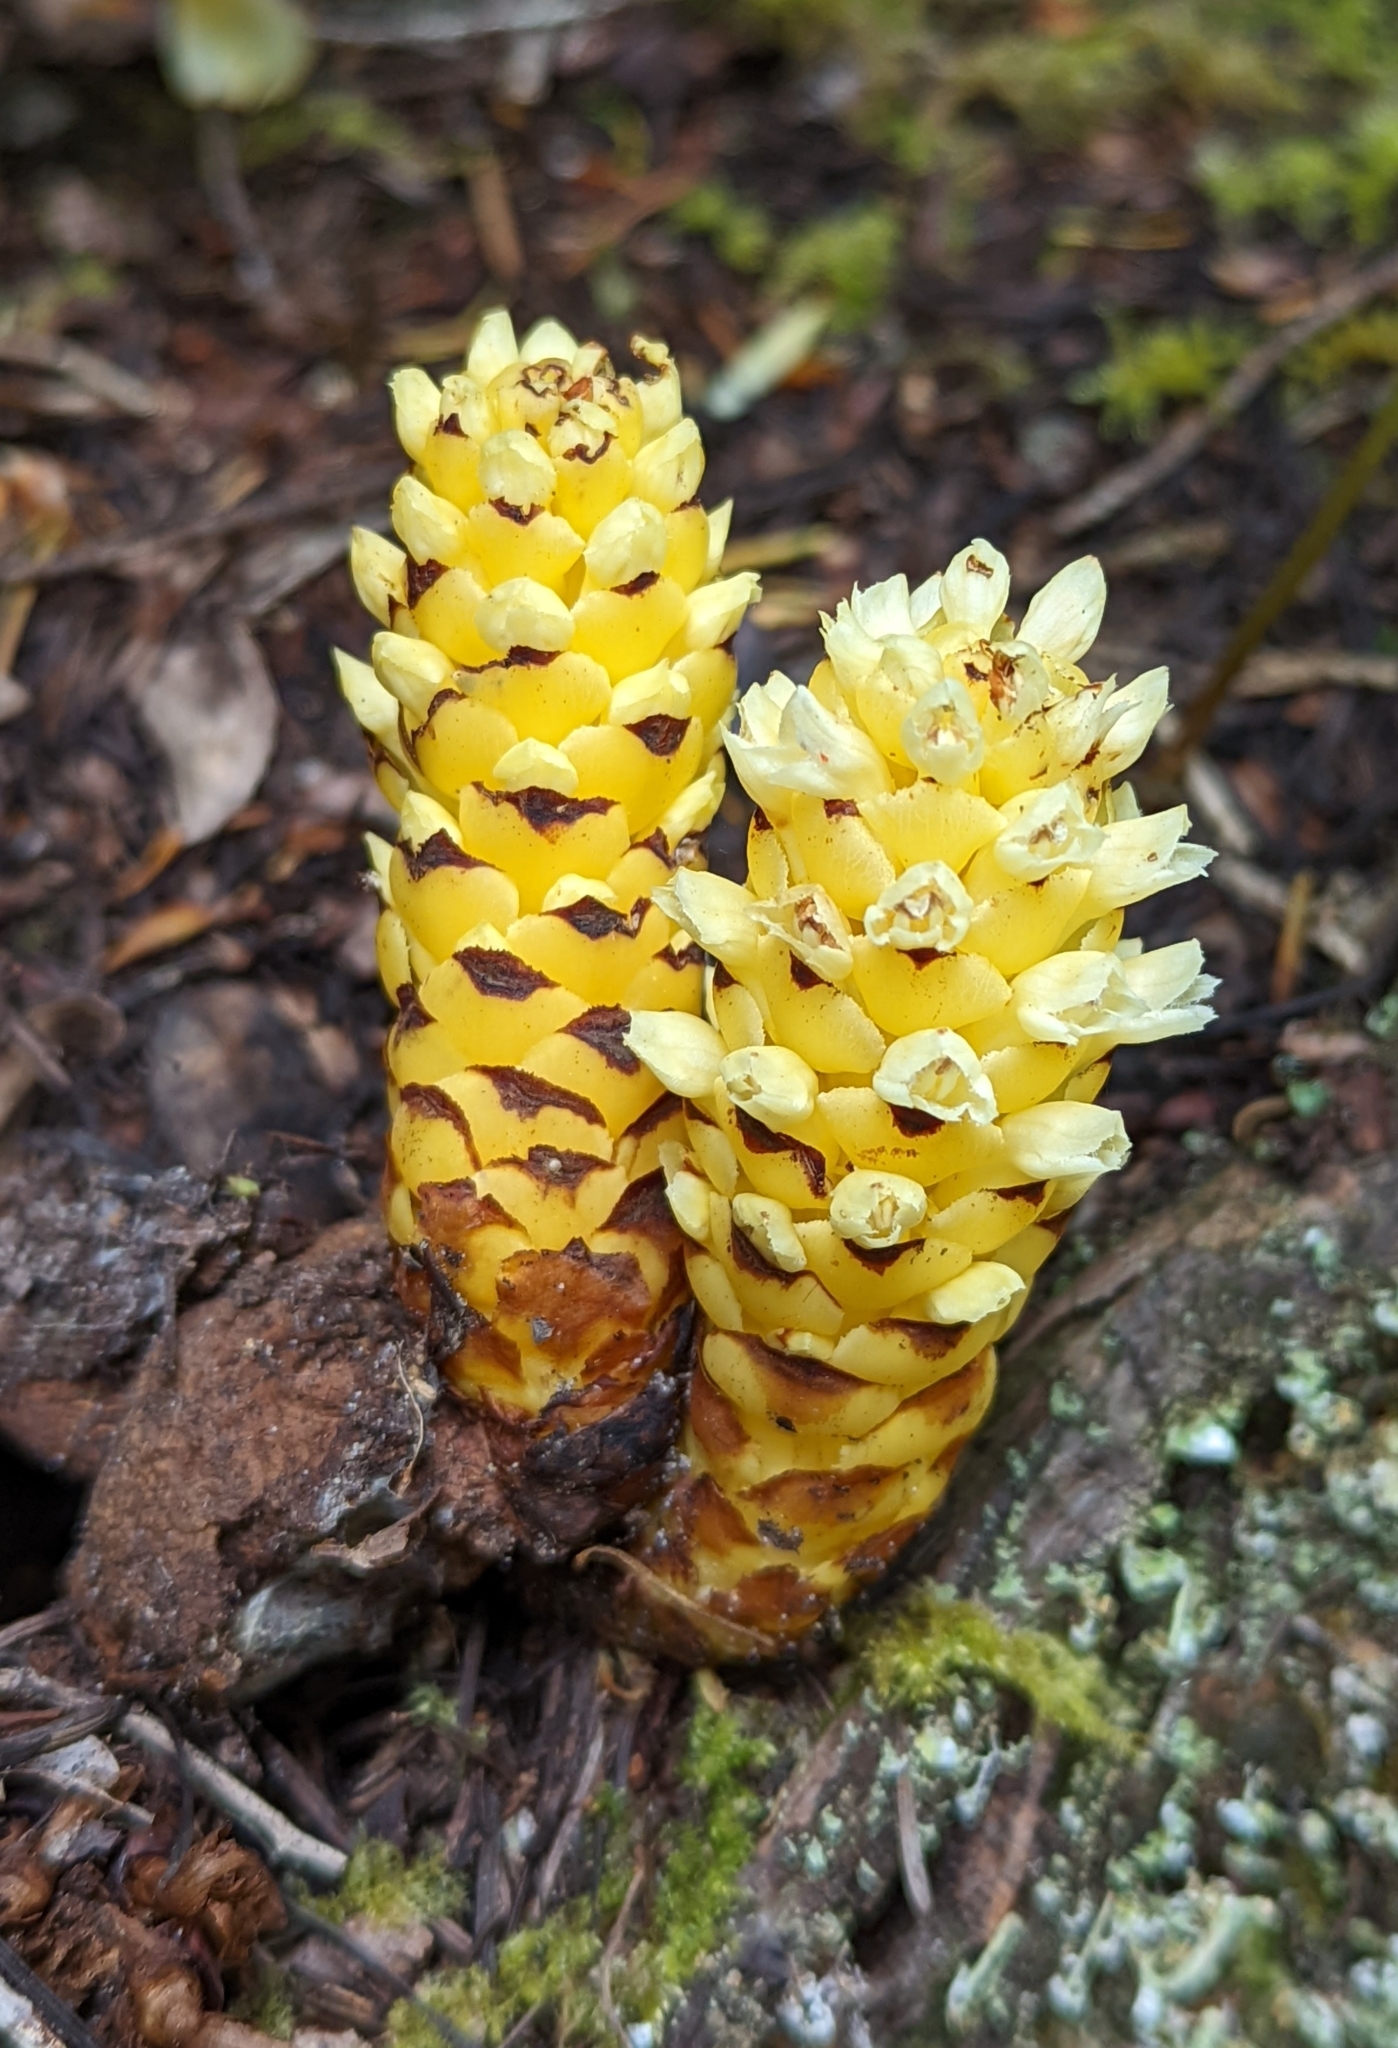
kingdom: Plantae
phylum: Tracheophyta
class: Magnoliopsida
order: Lamiales
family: Orobanchaceae
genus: Kopsiopsis
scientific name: Kopsiopsis hookeri
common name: Hooker's groundcone
